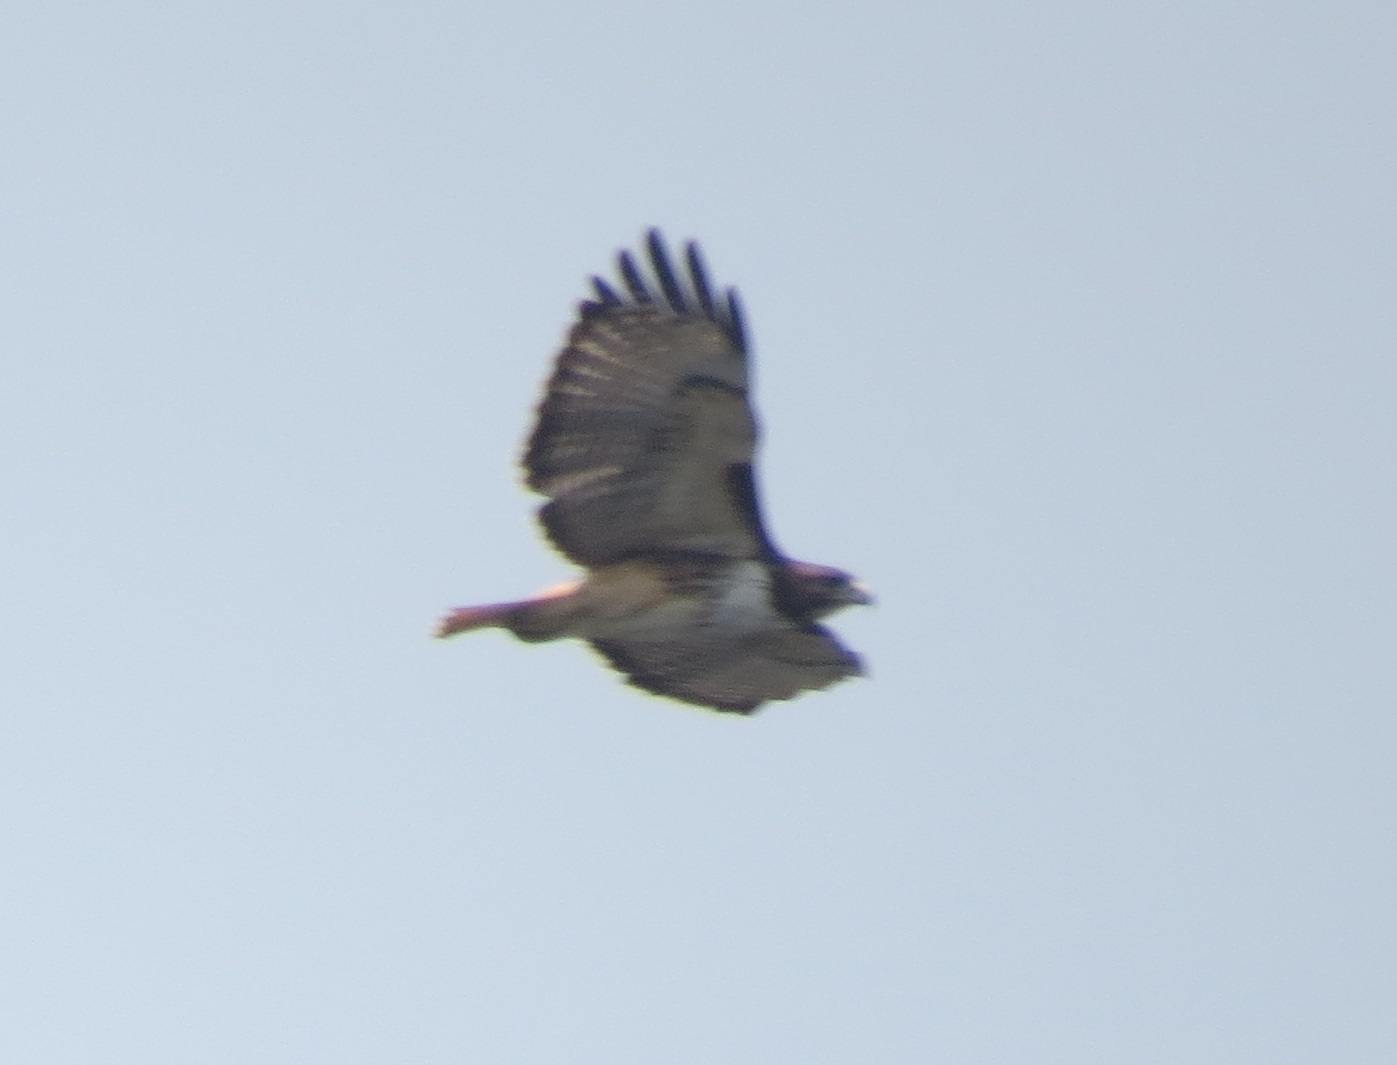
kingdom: Animalia
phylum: Chordata
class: Aves
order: Accipitriformes
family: Accipitridae
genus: Buteo
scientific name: Buteo jamaicensis
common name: Red-tailed hawk
